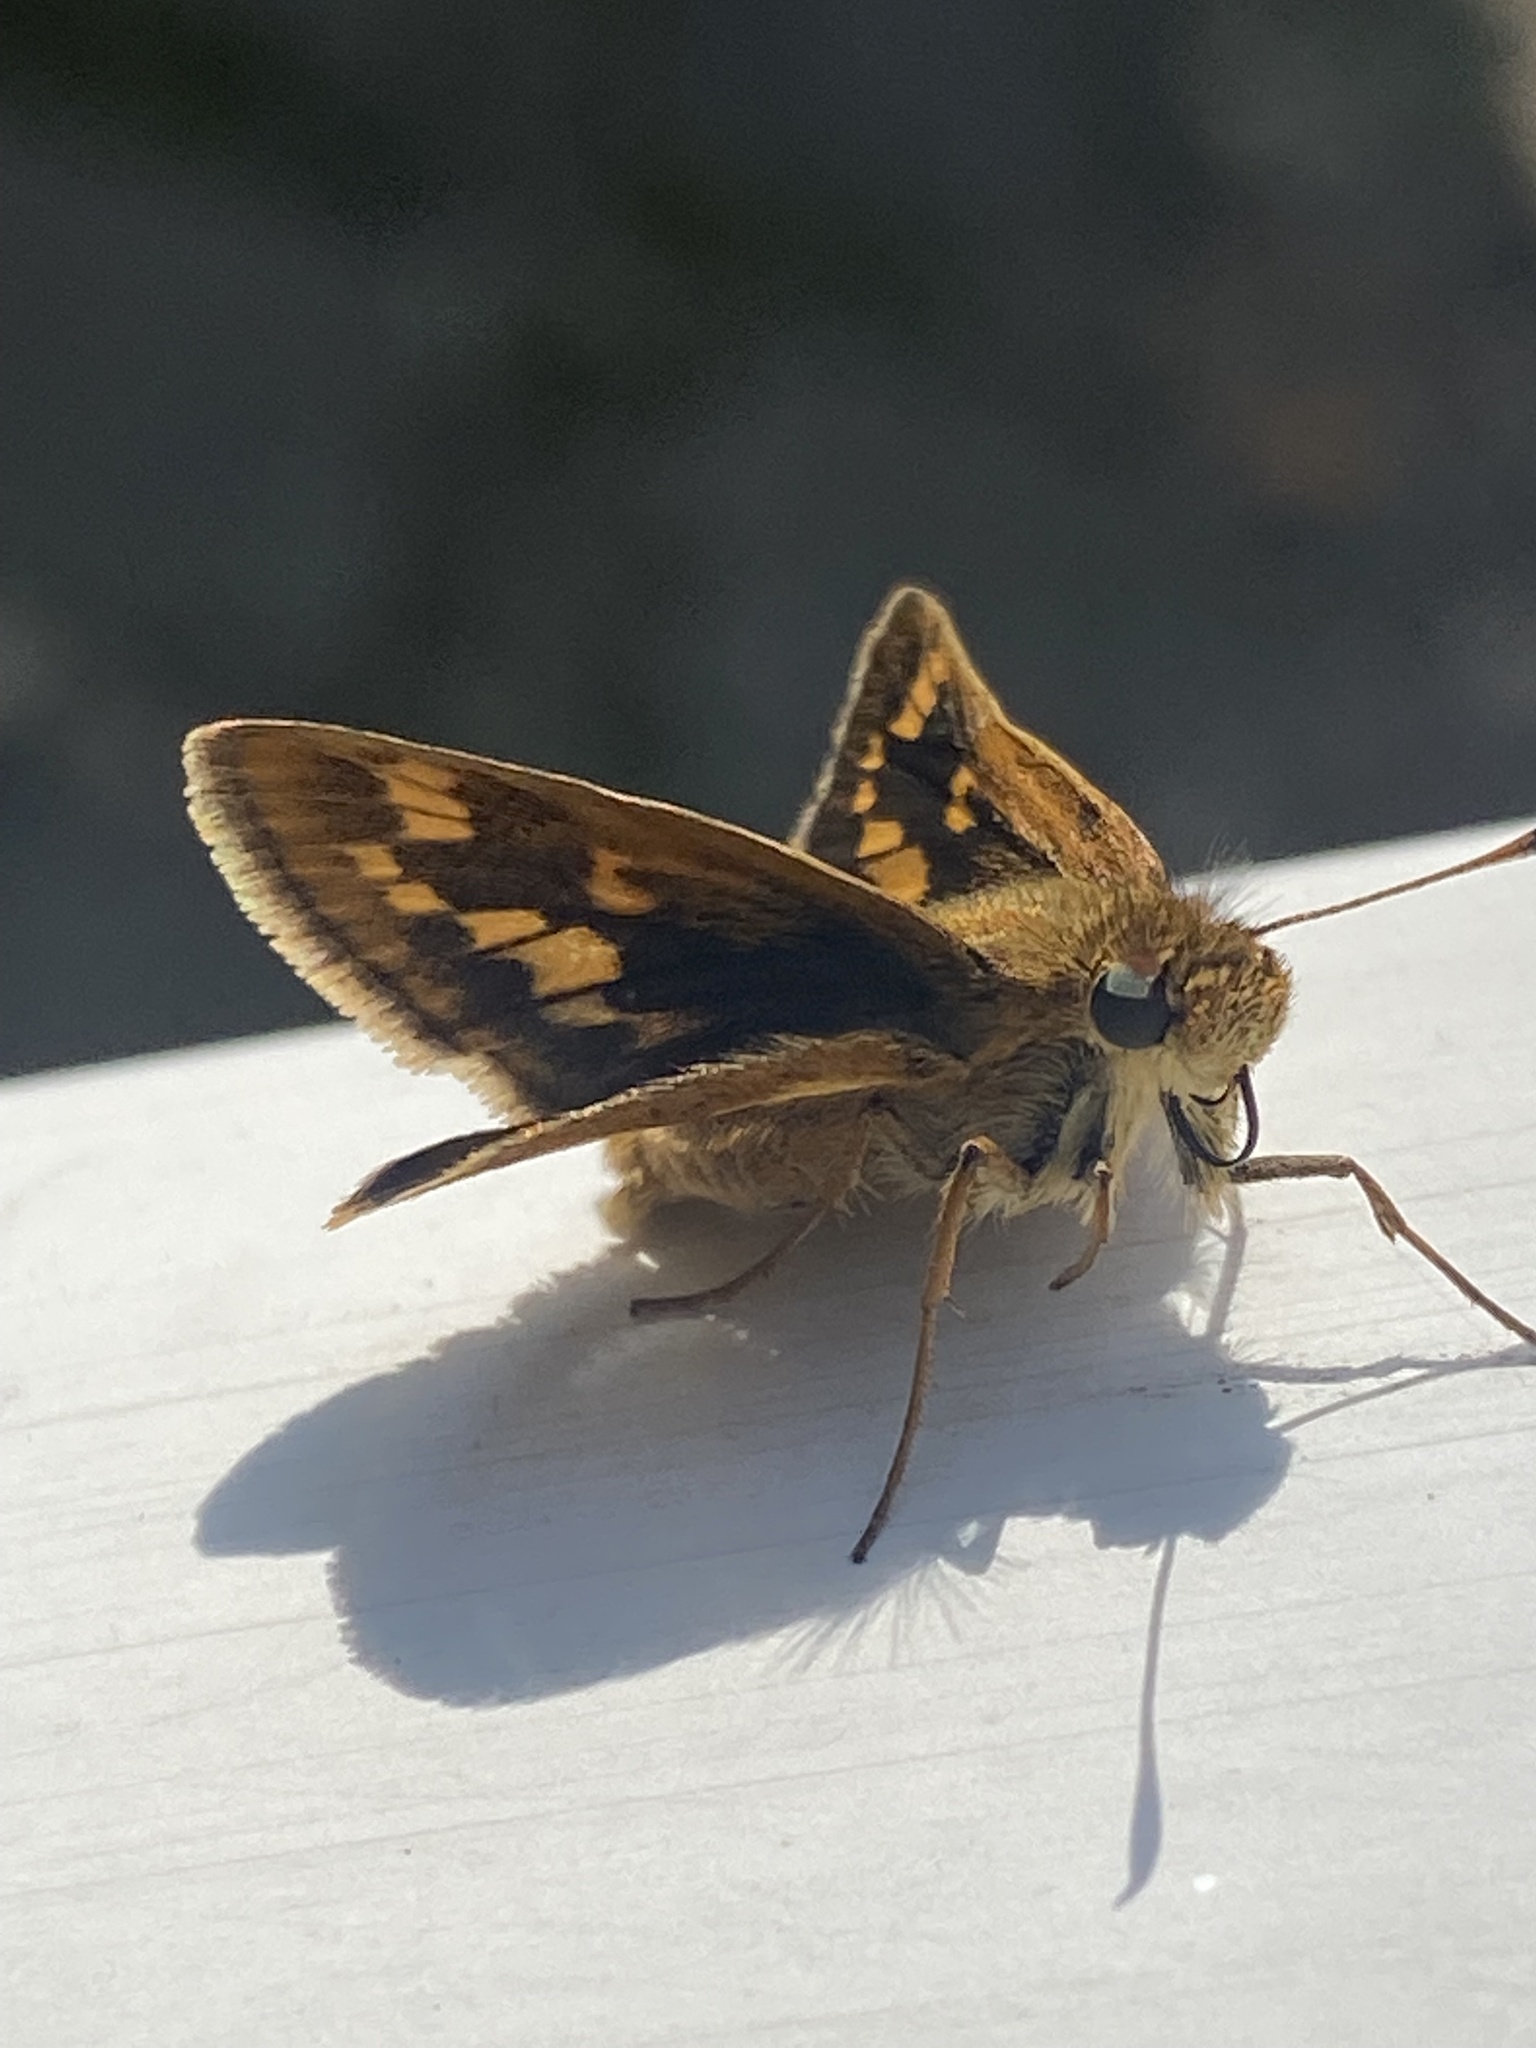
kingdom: Animalia
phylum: Arthropoda
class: Insecta
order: Lepidoptera
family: Hesperiidae
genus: Polites
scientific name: Polites coras
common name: Peck's skipper
